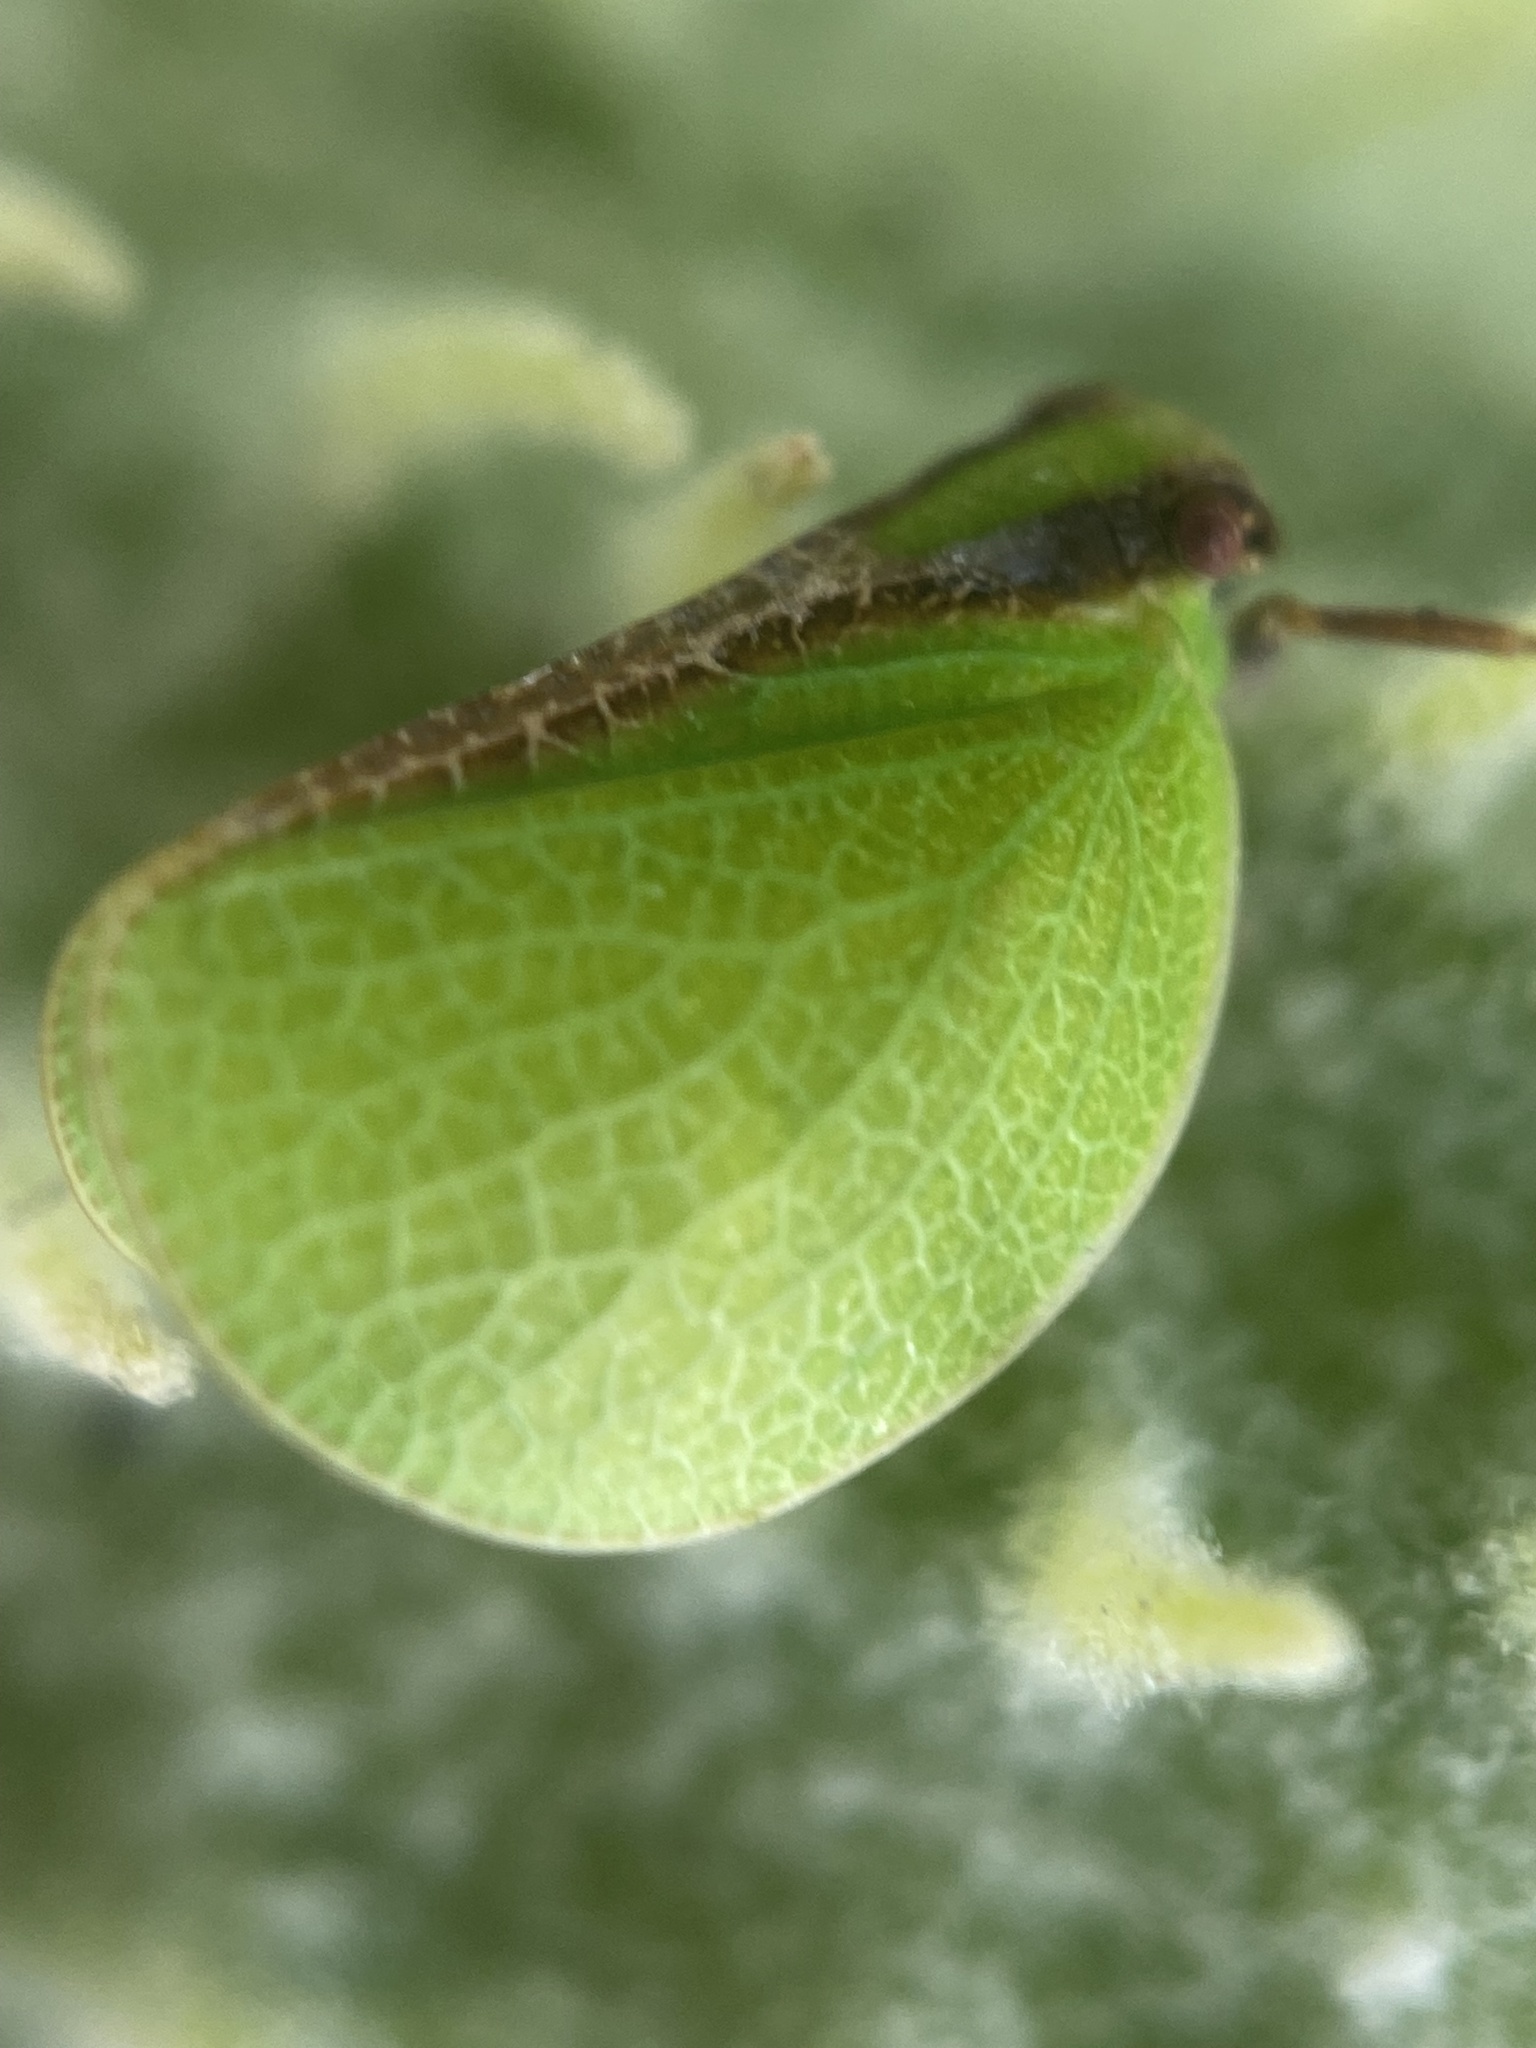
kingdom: Animalia
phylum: Arthropoda
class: Insecta
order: Hemiptera
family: Acanaloniidae
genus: Acanalonia
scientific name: Acanalonia bivittata
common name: Two-striped planthopper
